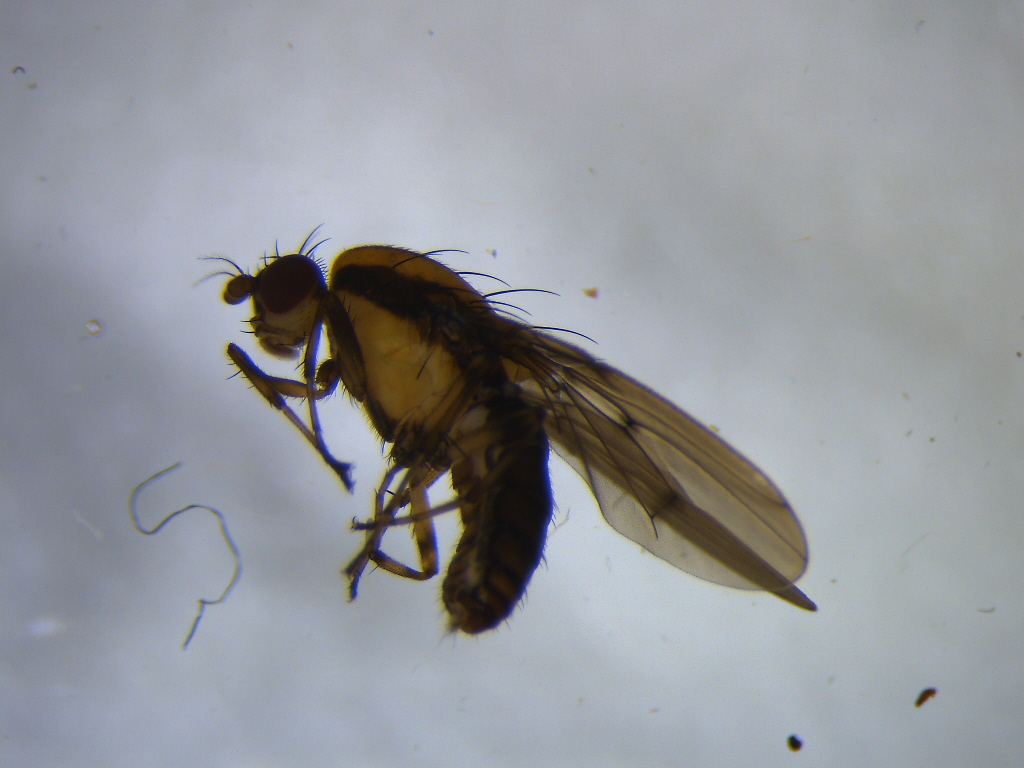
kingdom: Animalia
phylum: Arthropoda
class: Insecta
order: Diptera
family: Heleomyzidae
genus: Allophylopsis
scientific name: Allophylopsis scutellata
